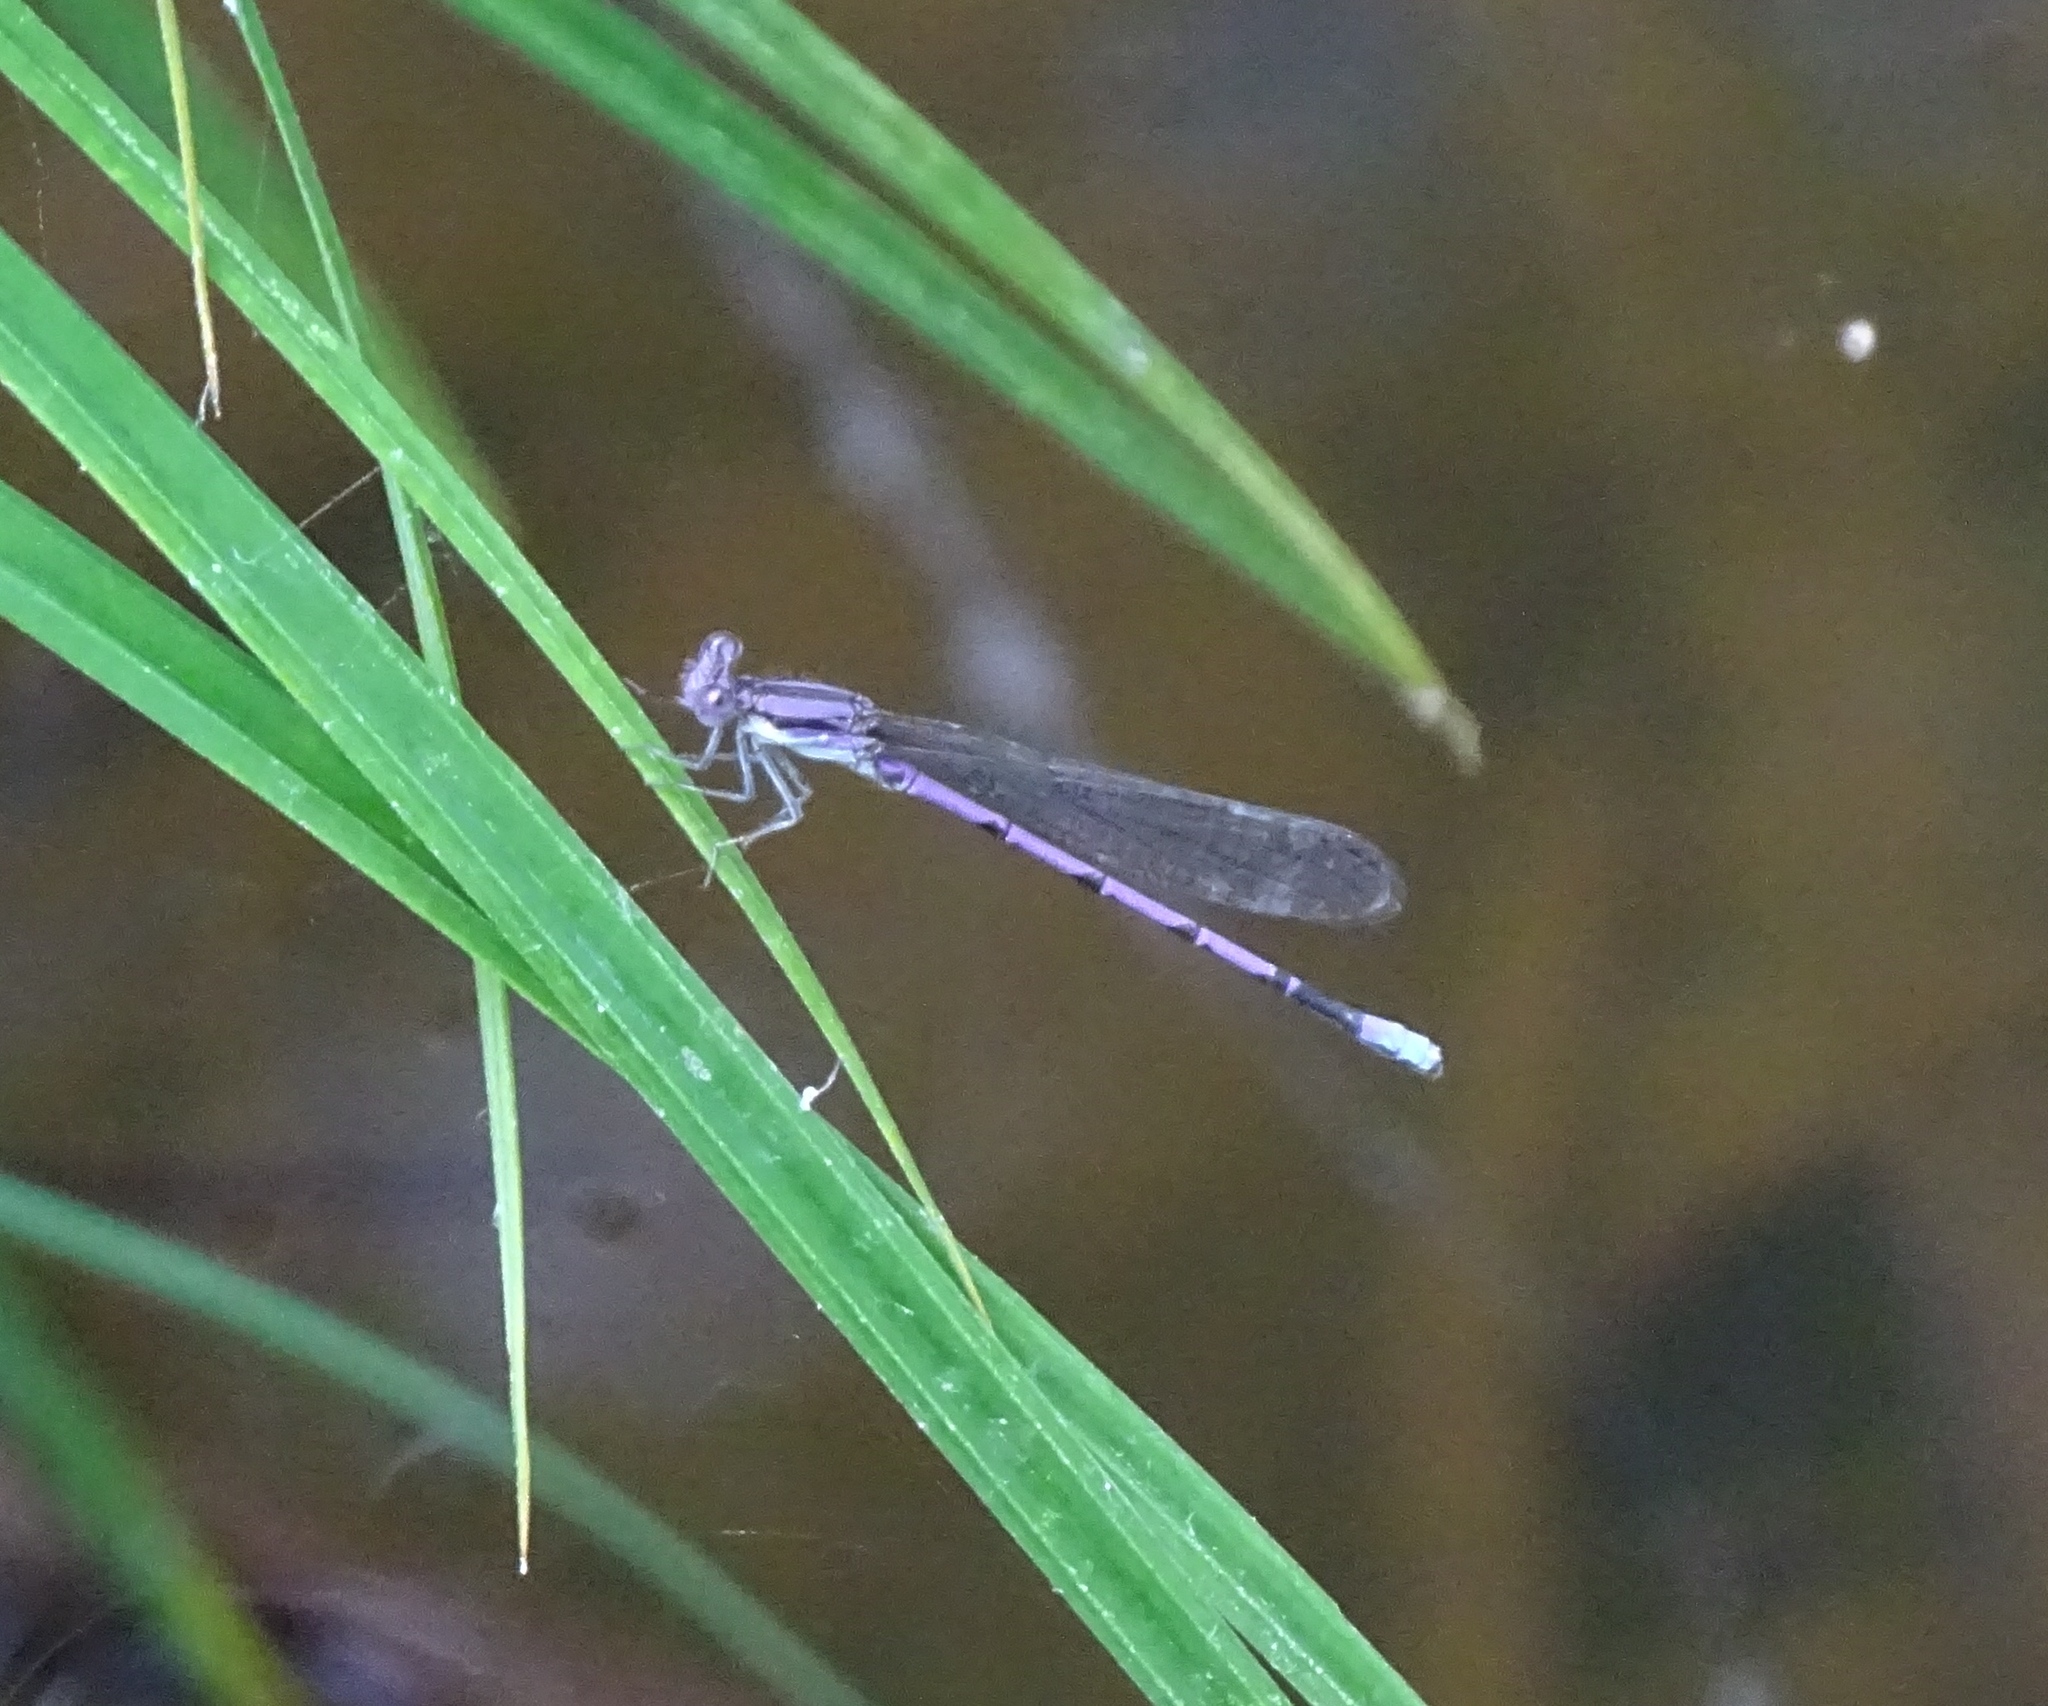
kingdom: Animalia
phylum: Arthropoda
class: Insecta
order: Odonata
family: Coenagrionidae
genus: Argia
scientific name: Argia fumipennis
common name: Variable dancer
